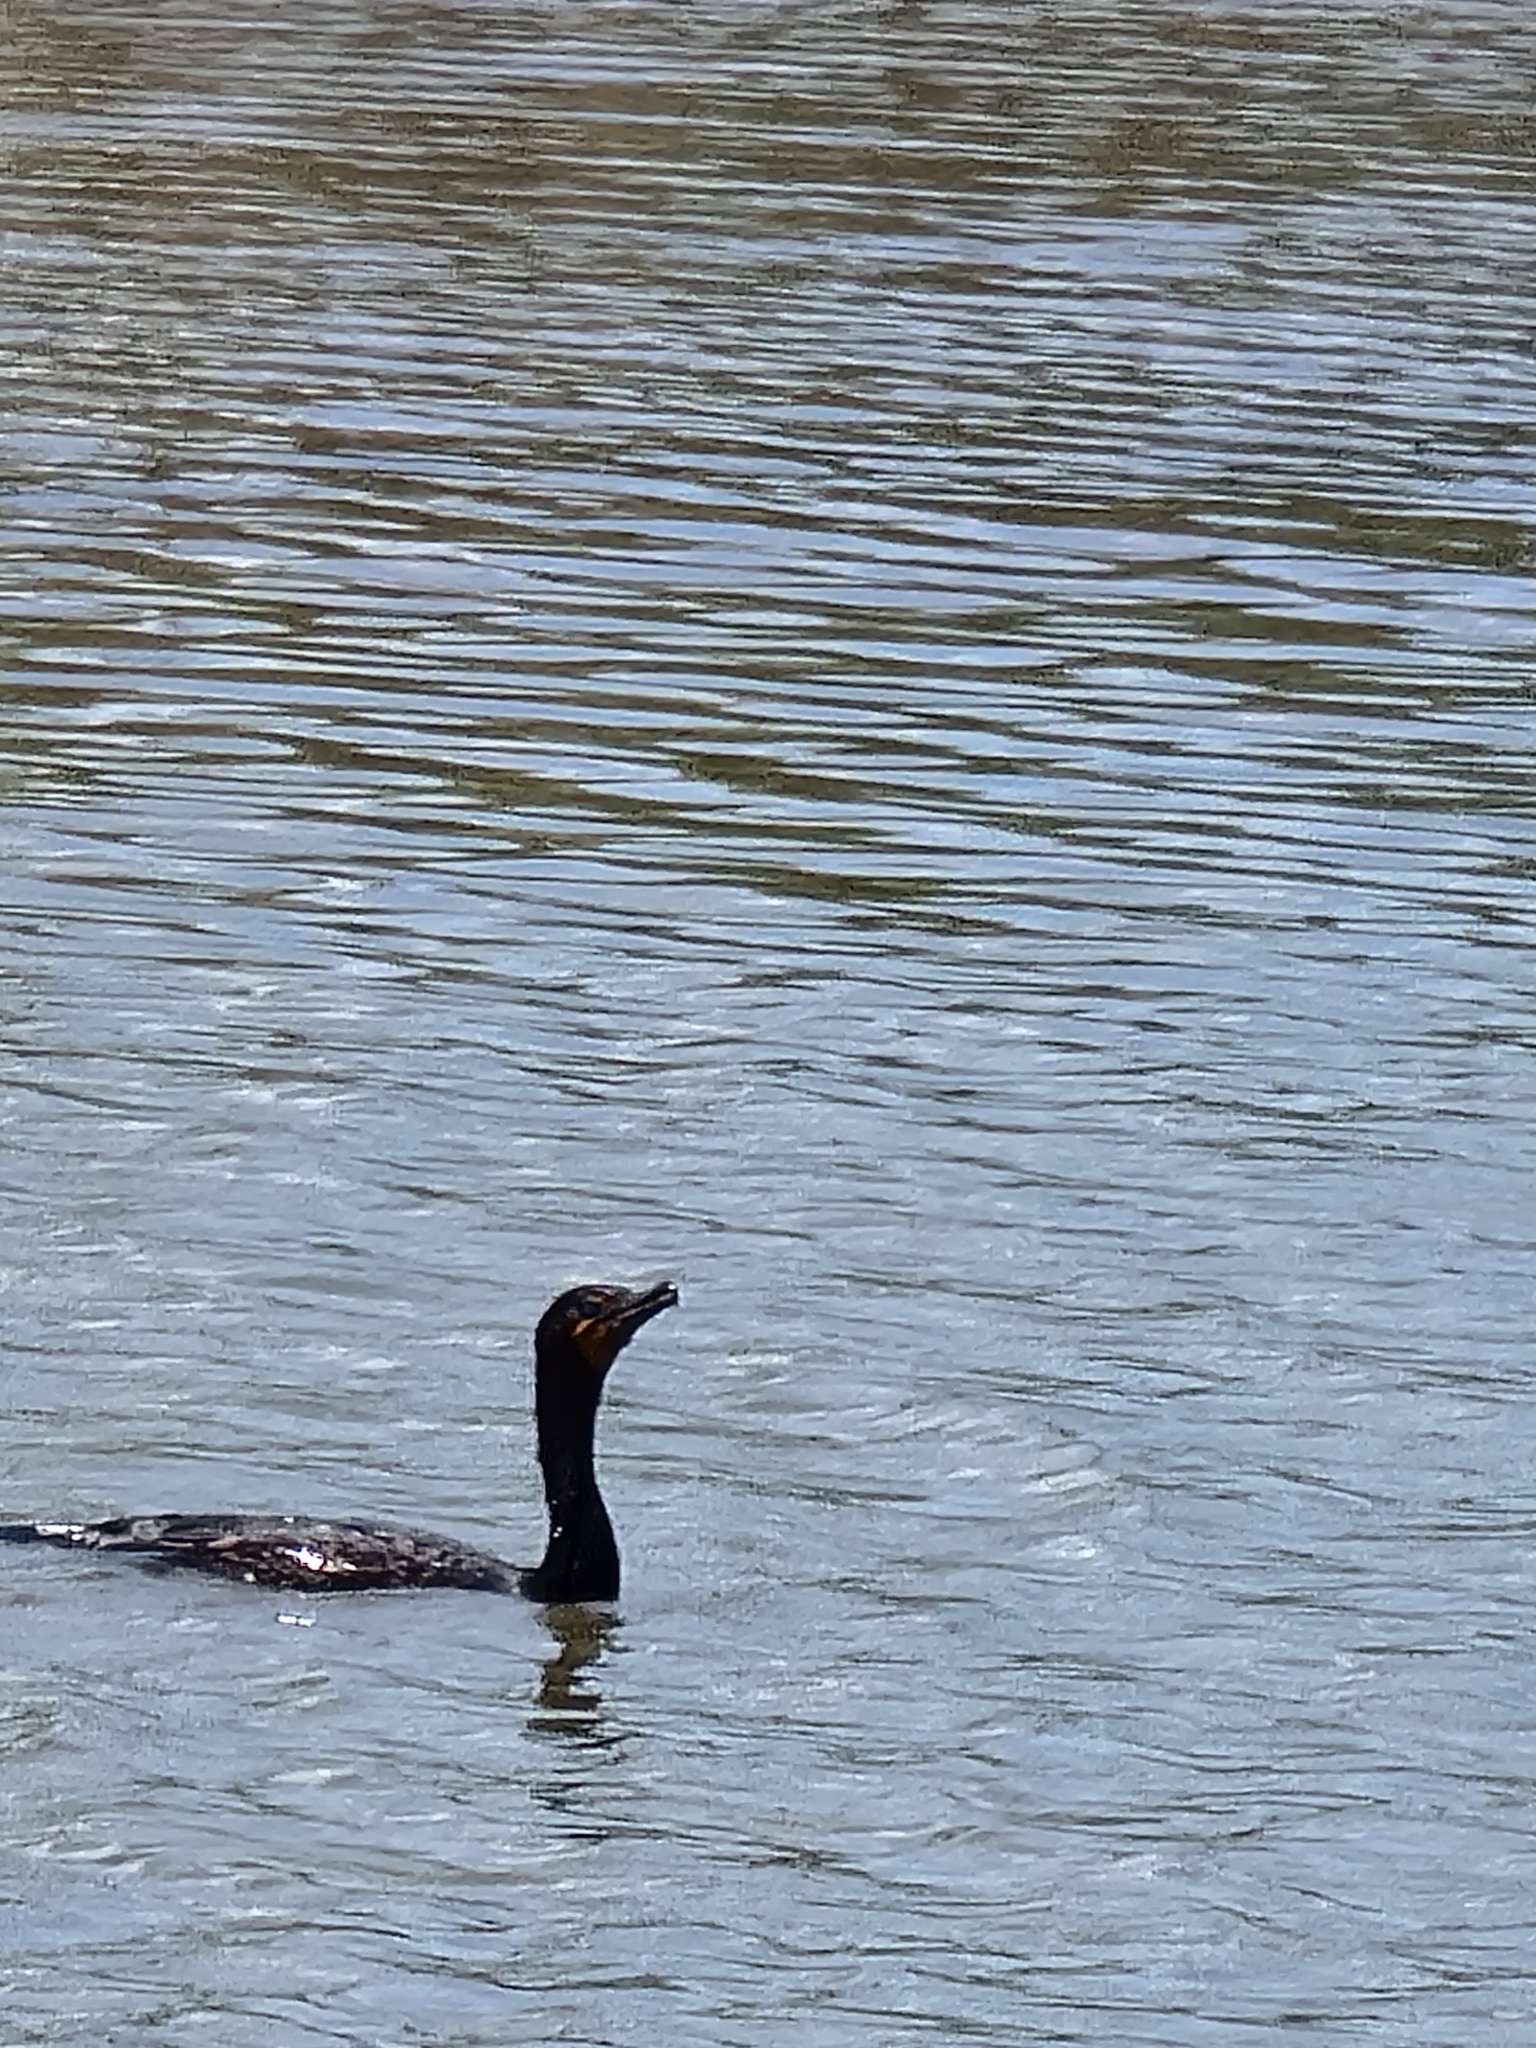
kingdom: Animalia
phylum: Chordata
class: Aves
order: Suliformes
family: Phalacrocoracidae
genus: Phalacrocorax
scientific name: Phalacrocorax auritus
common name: Double-crested cormorant
